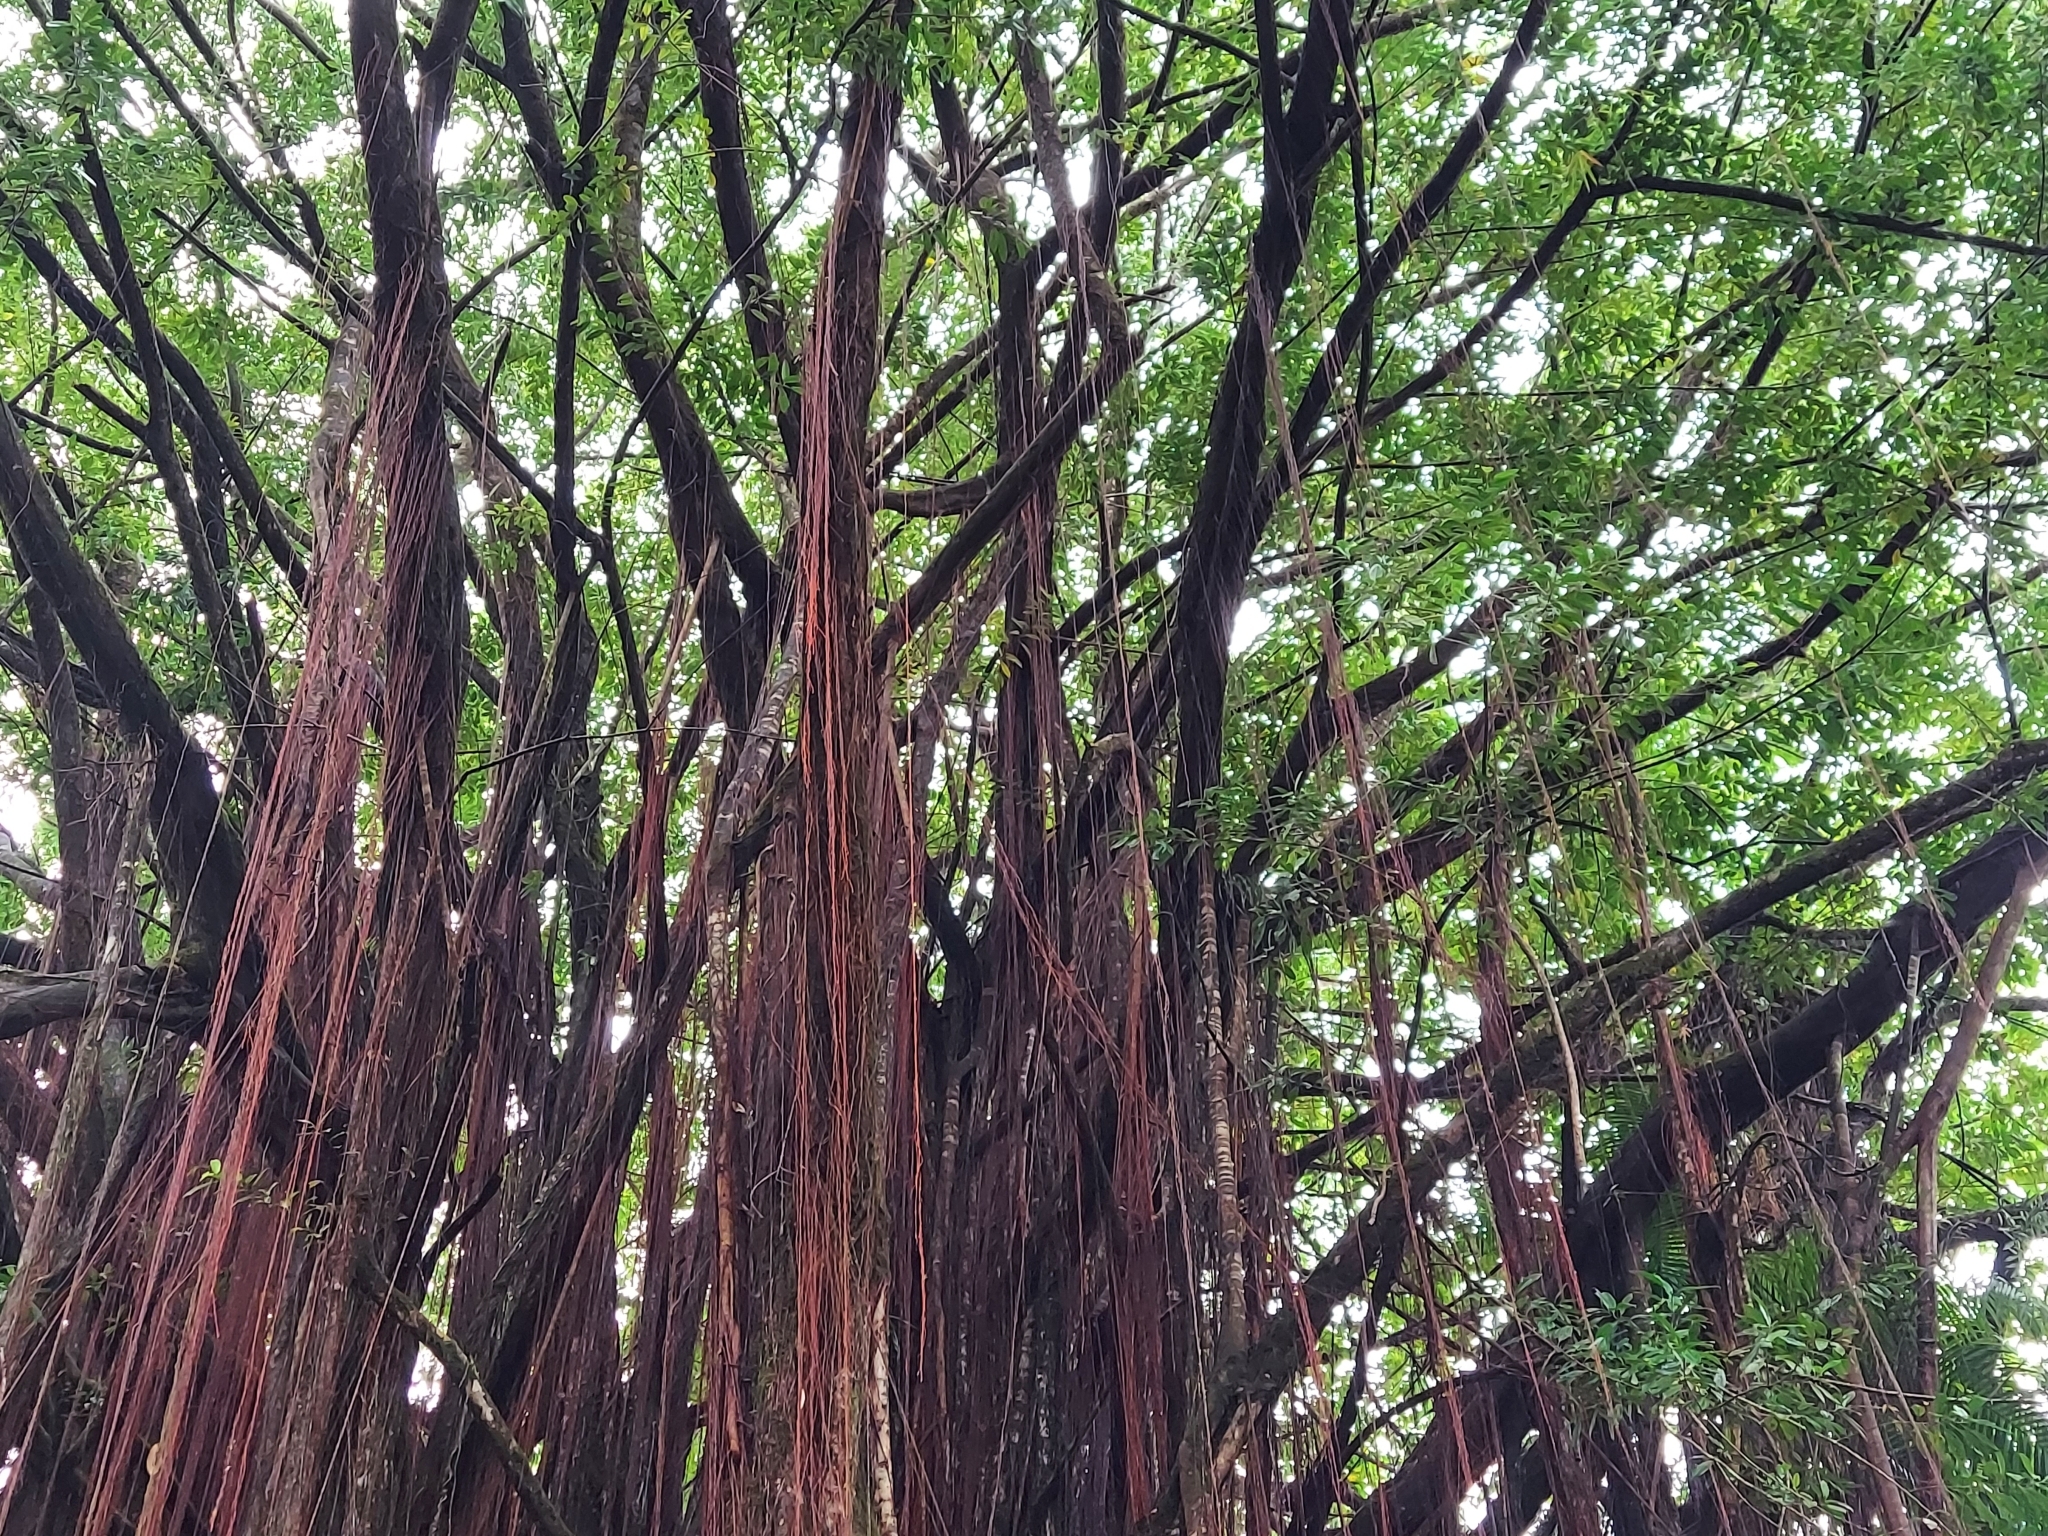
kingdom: Plantae
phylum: Tracheophyta
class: Magnoliopsida
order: Rosales
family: Moraceae
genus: Ficus
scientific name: Ficus microcarpa
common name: Chinese banyan
